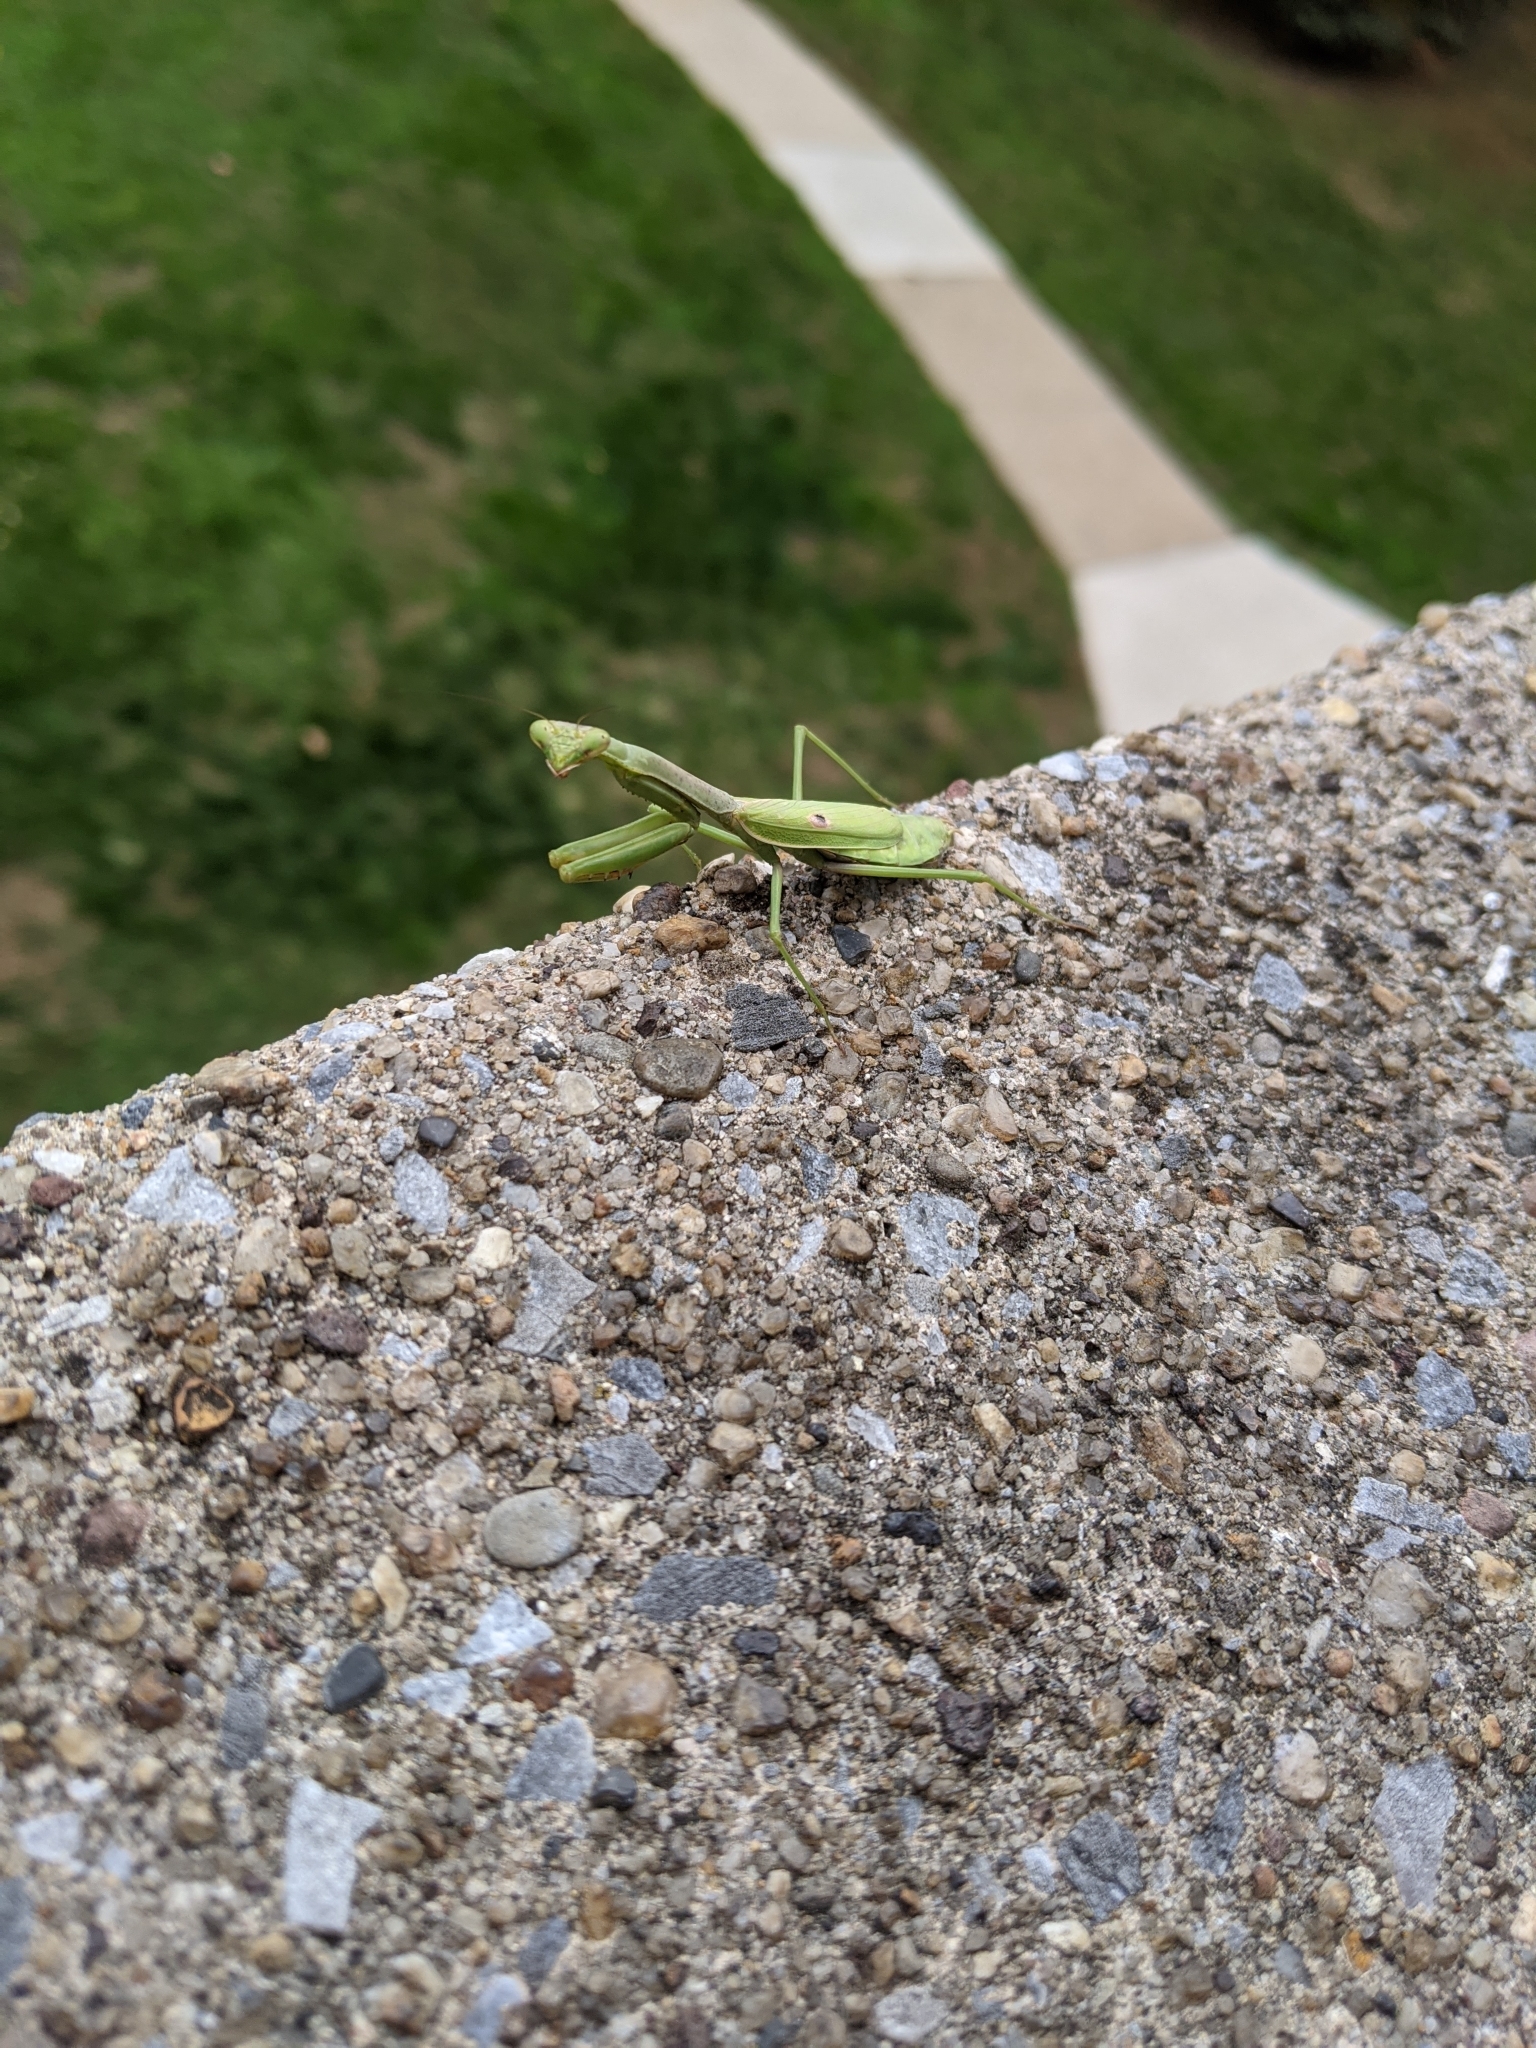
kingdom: Animalia
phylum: Arthropoda
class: Insecta
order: Mantodea
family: Mantidae
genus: Stagmomantis
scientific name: Stagmomantis carolina
